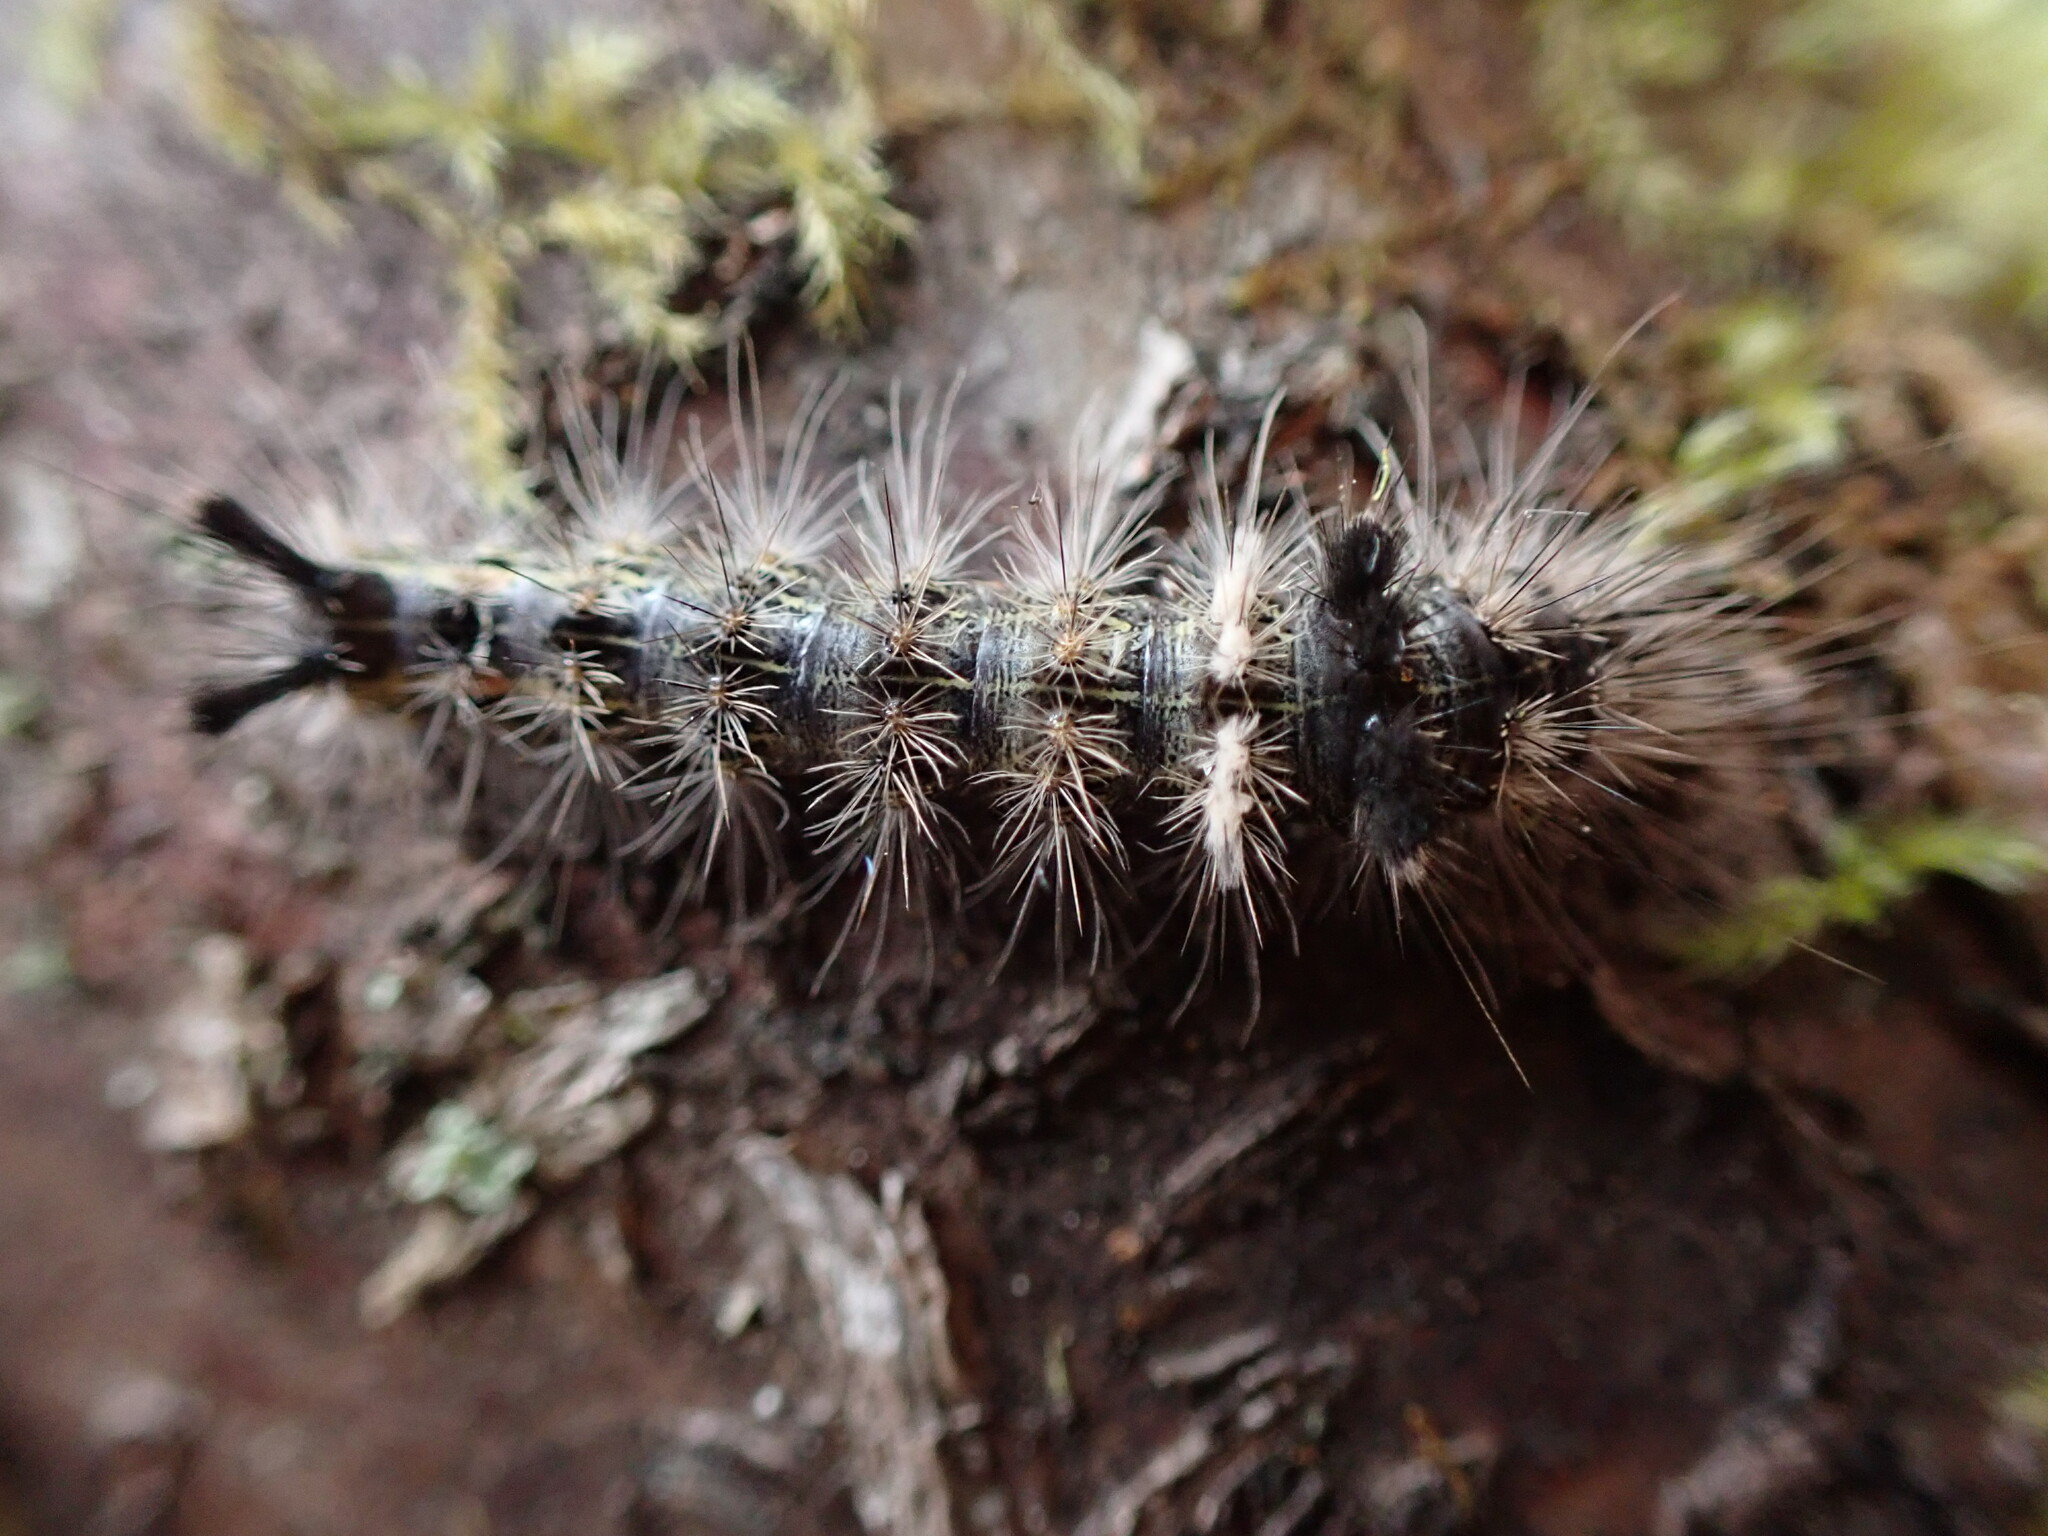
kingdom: Animalia
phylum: Arthropoda
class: Insecta
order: Lepidoptera
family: Noctuidae
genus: Acronicta
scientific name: Acronicta impleta
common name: Powdered dagger
